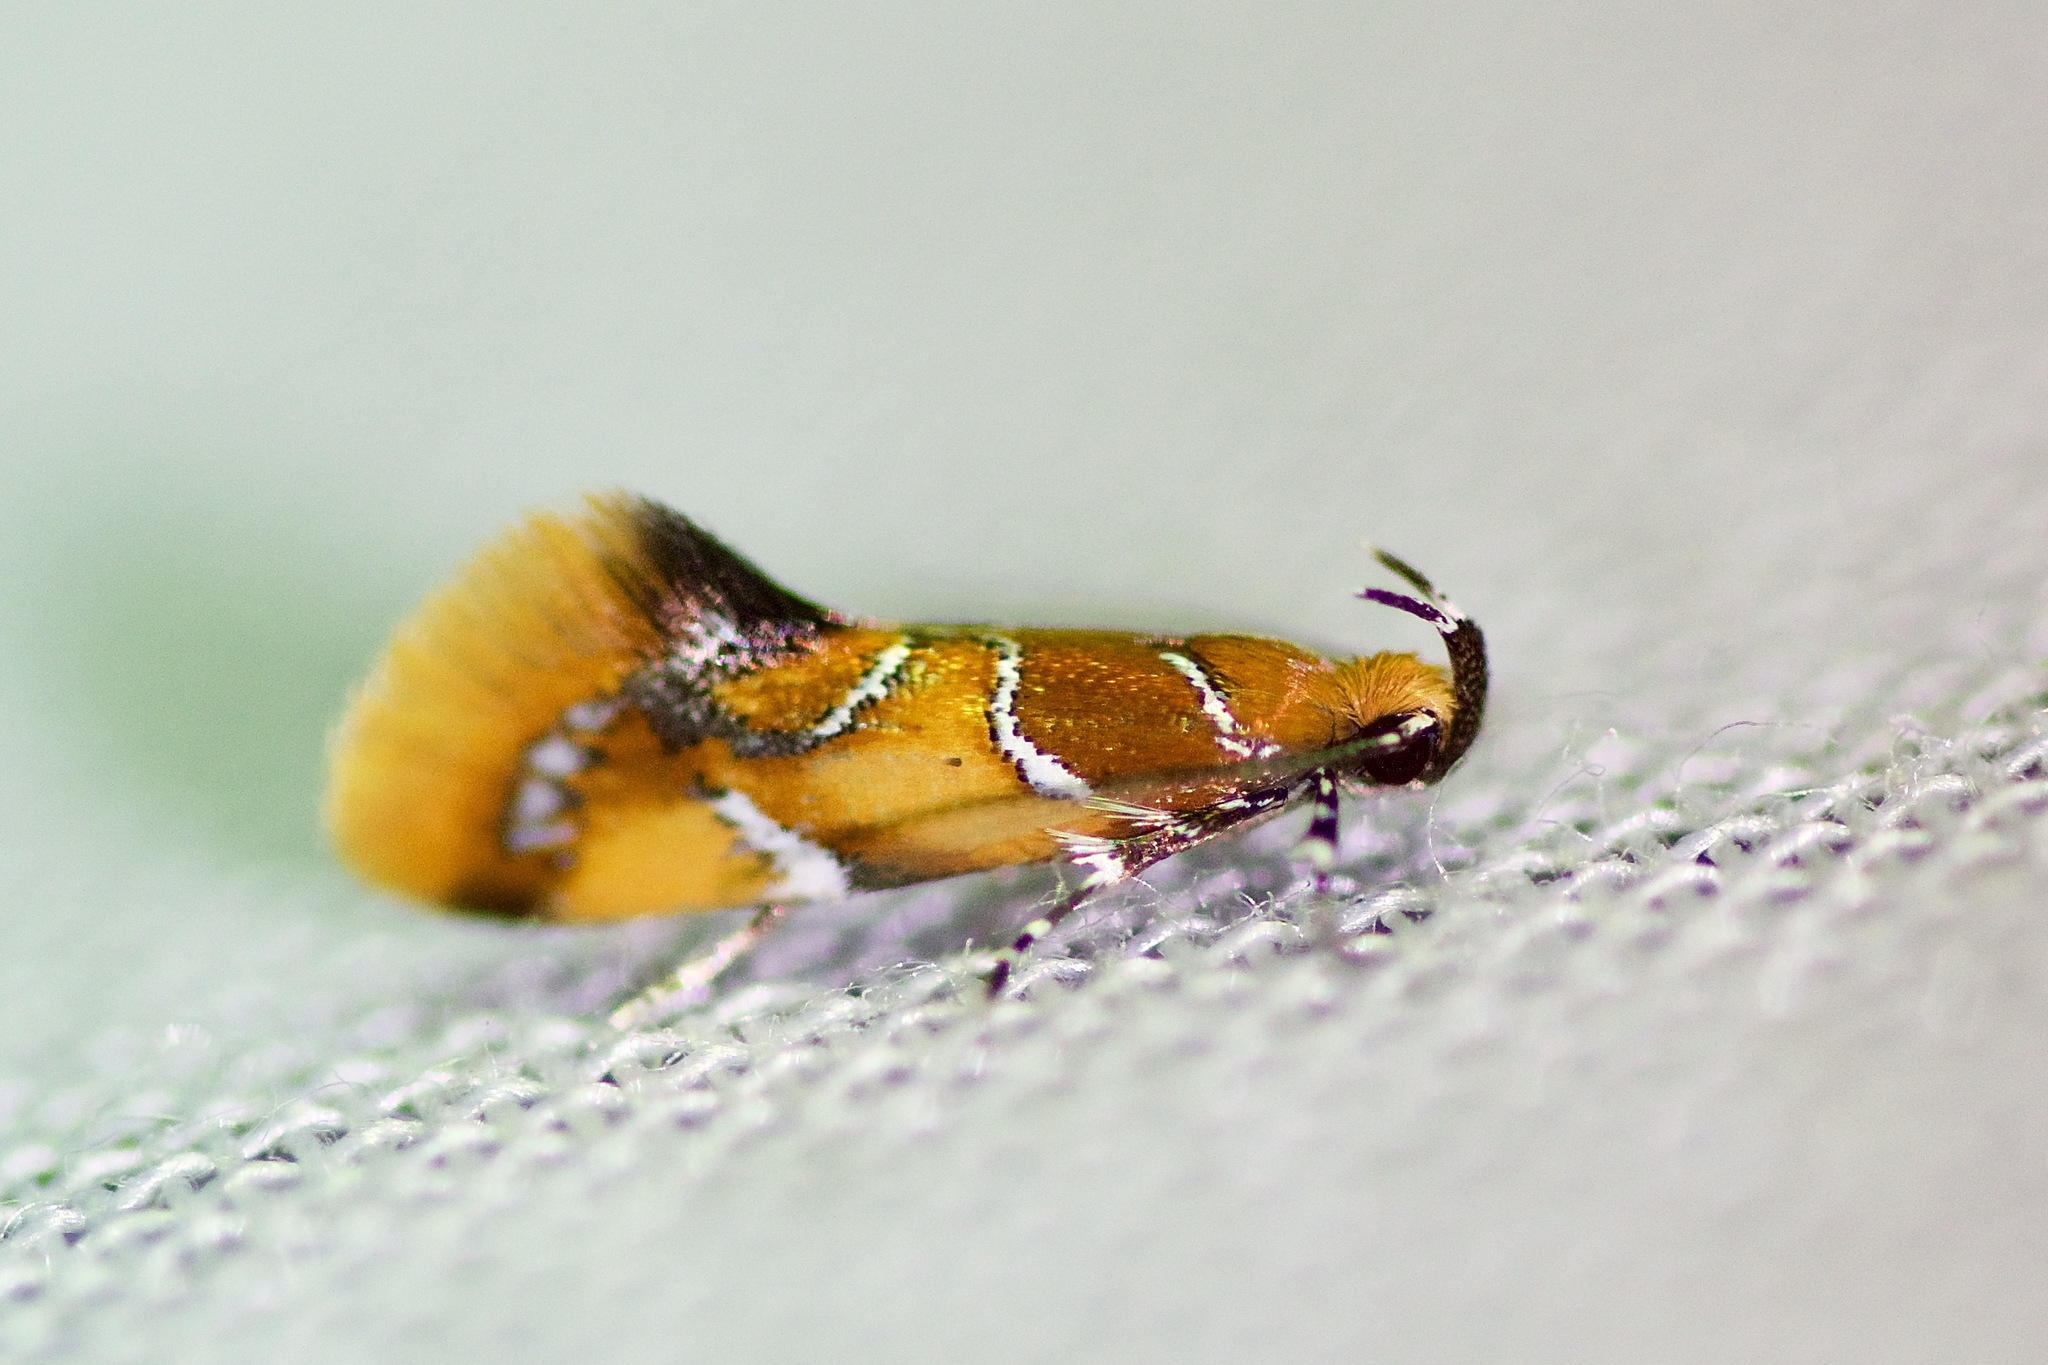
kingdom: Animalia
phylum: Arthropoda
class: Insecta
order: Lepidoptera
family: Oecophoridae
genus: Callima
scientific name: Callima argenticinctella
